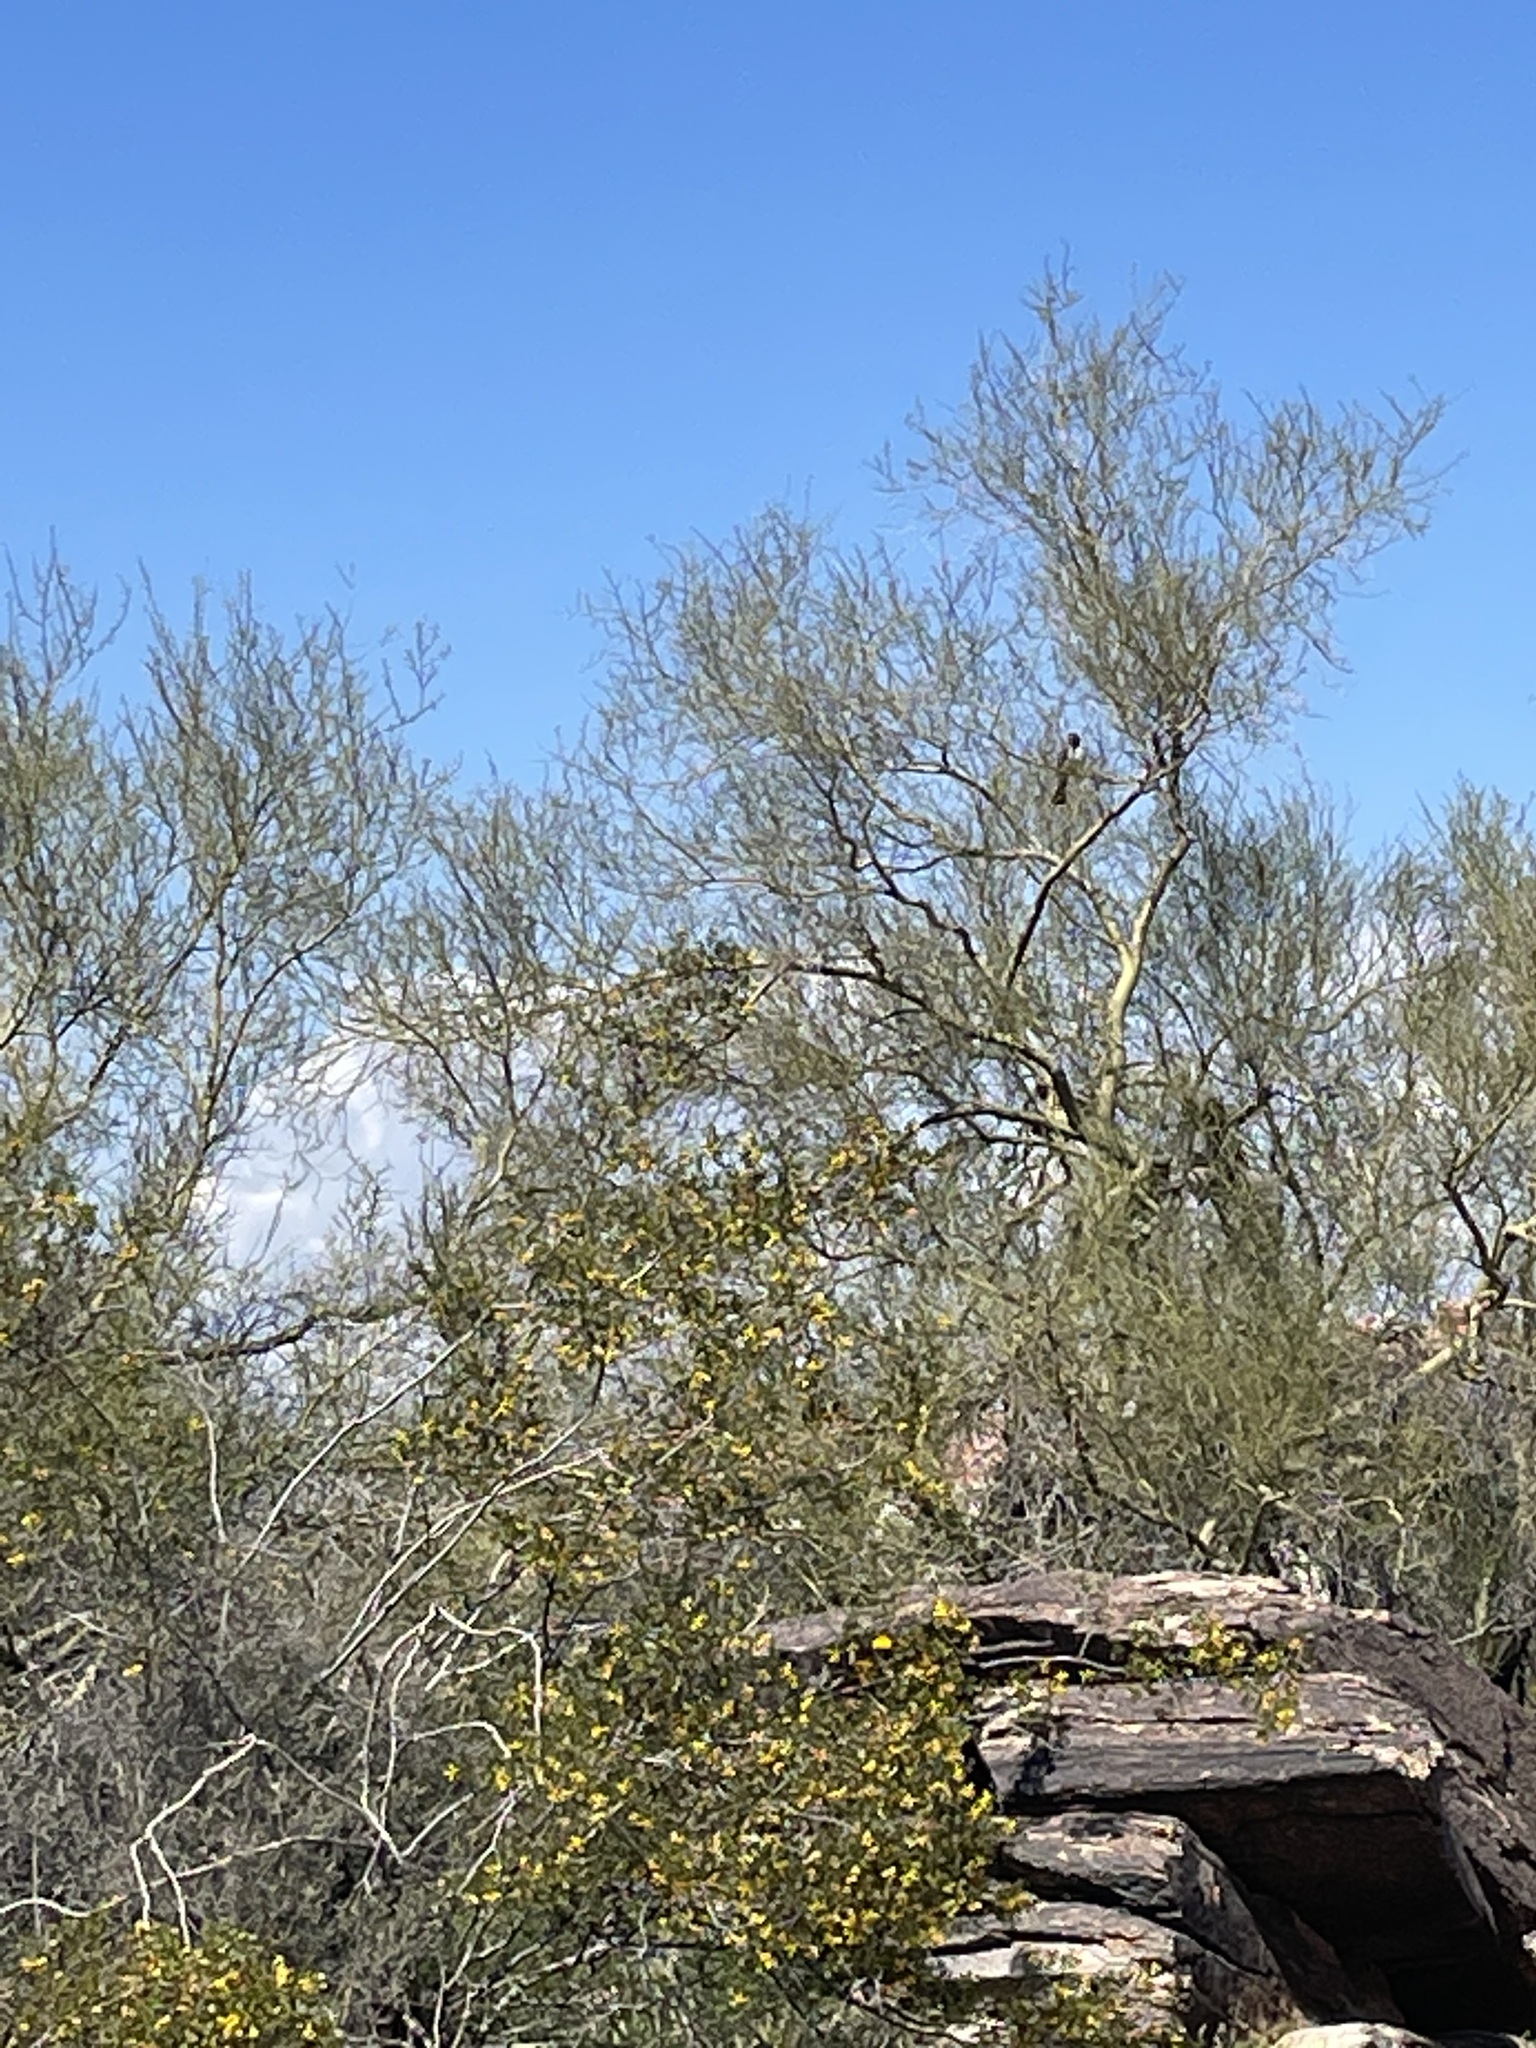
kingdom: Animalia
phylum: Chordata
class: Aves
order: Passeriformes
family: Tyrannidae
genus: Myiarchus
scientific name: Myiarchus cinerascens
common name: Ash-throated flycatcher
